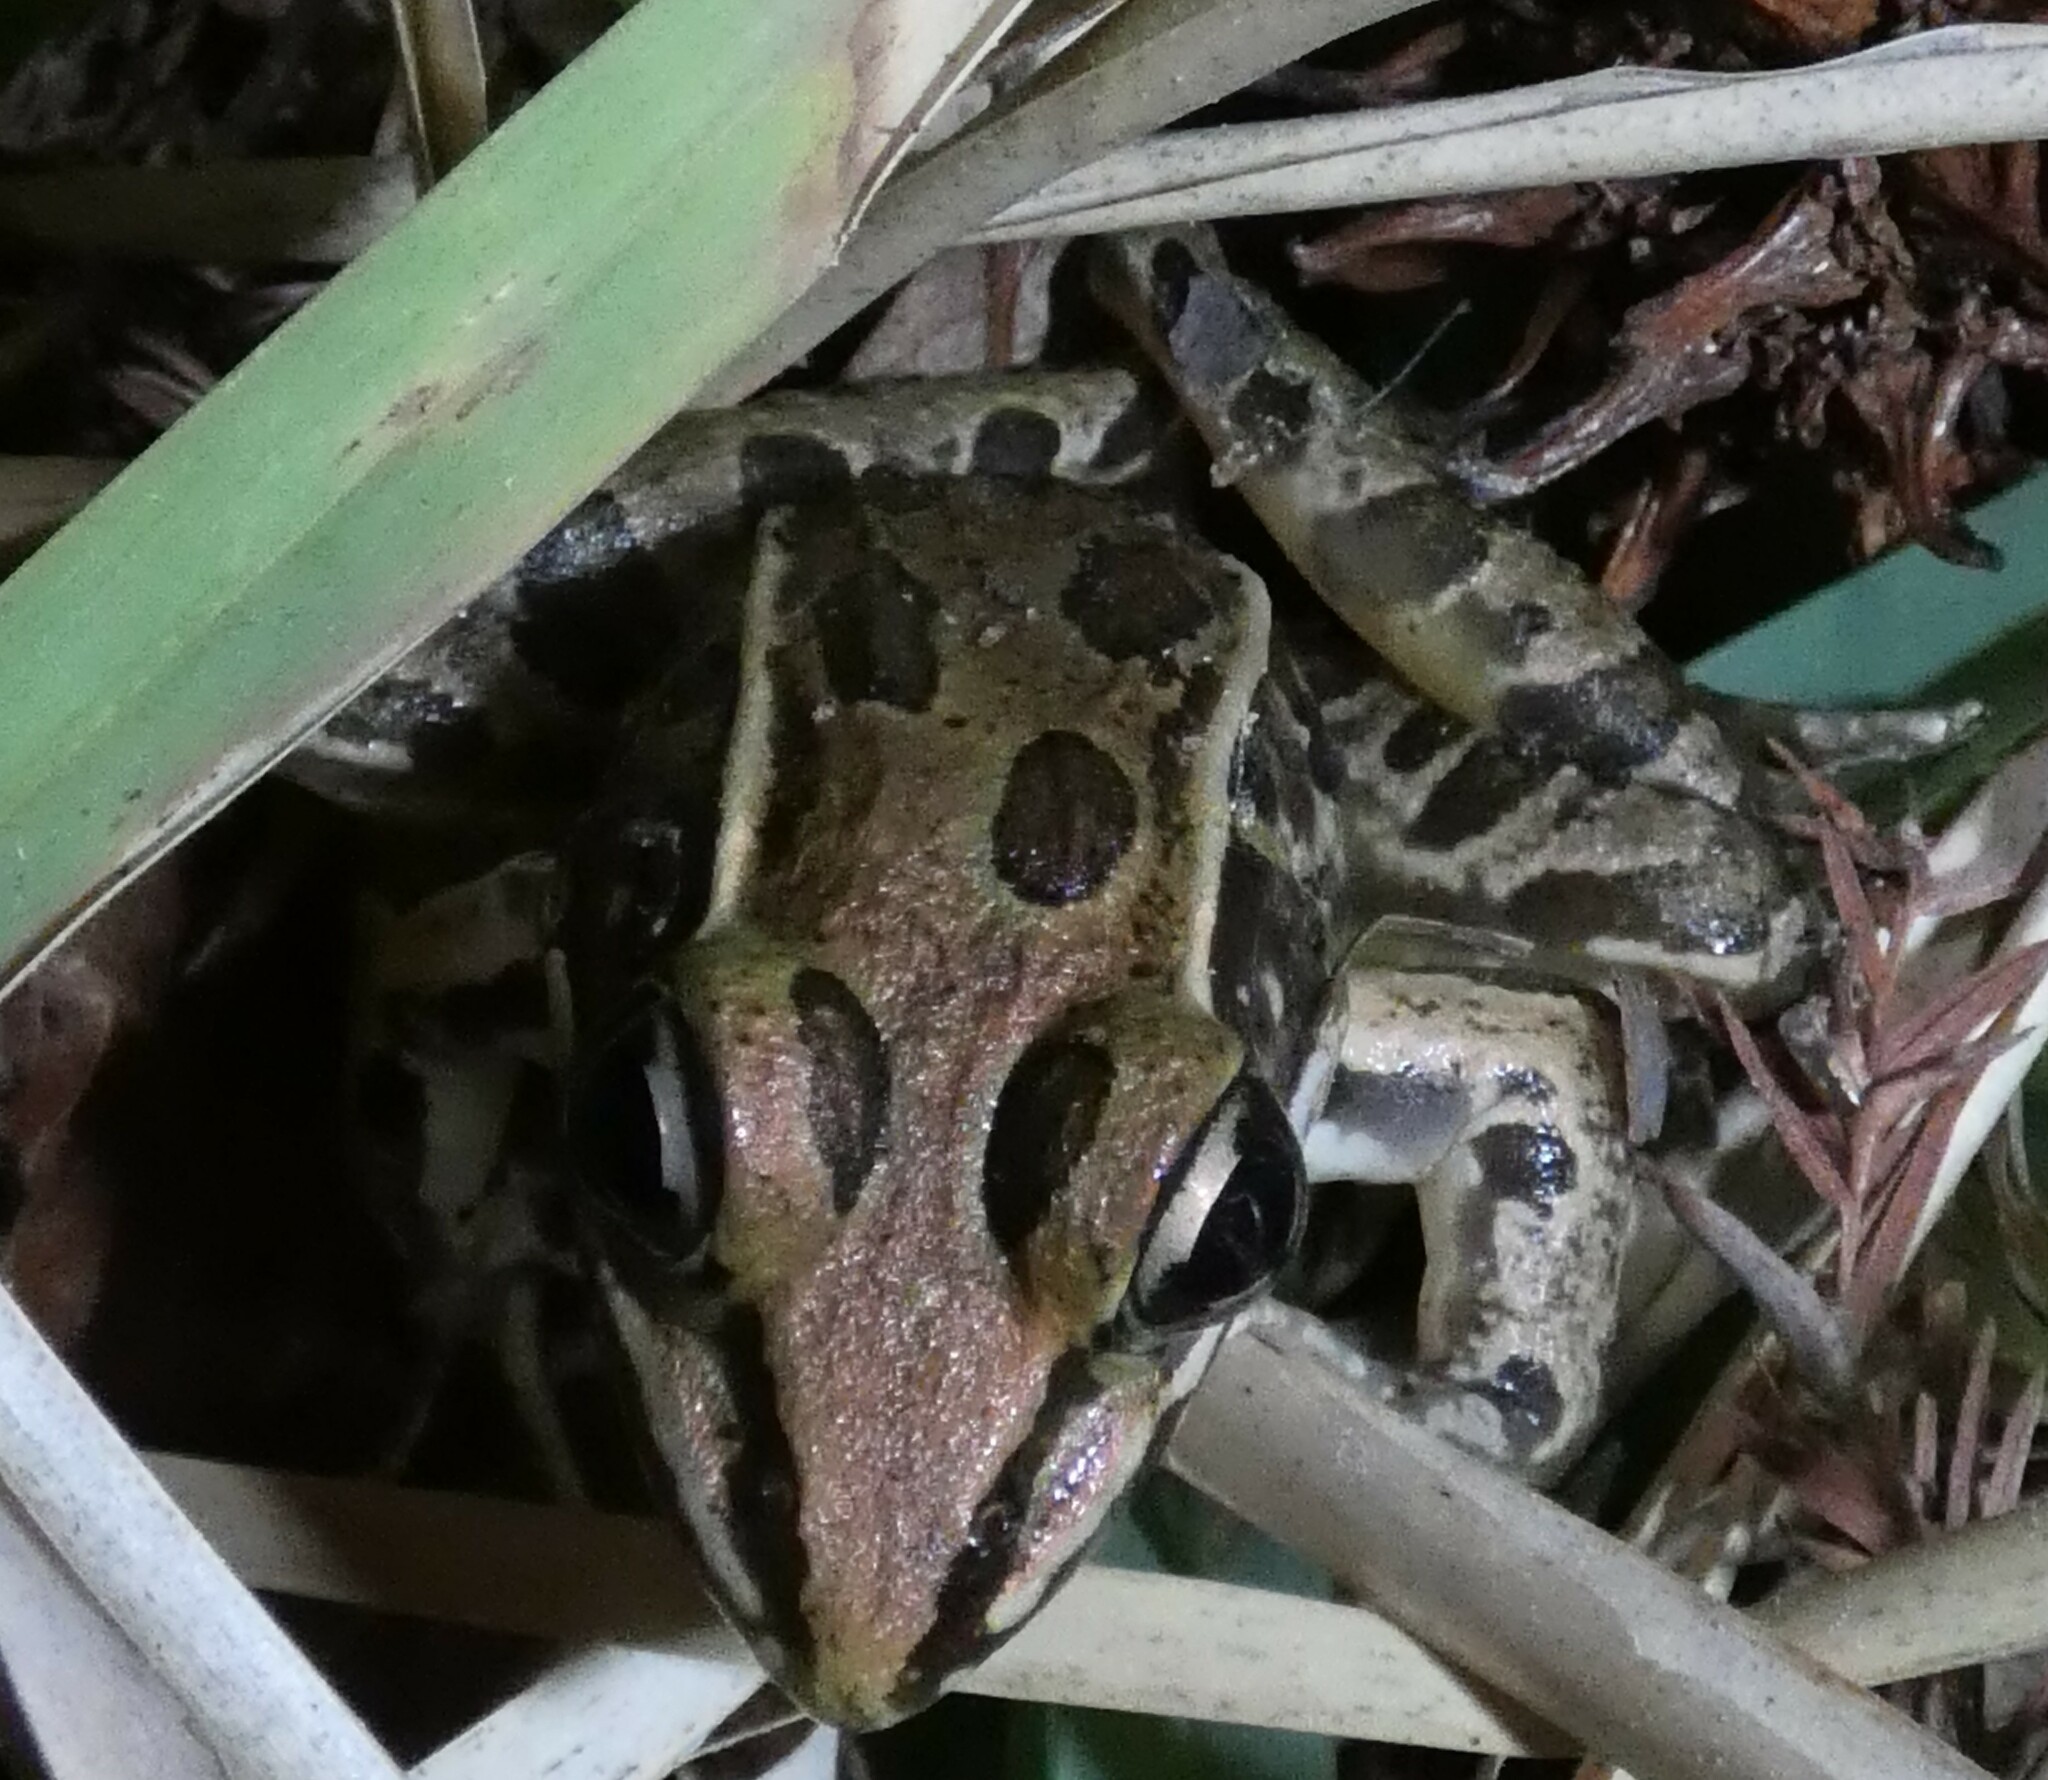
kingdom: Animalia
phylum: Chordata
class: Amphibia
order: Anura
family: Ranidae
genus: Lithobates
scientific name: Lithobates sphenocephalus
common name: Southern leopard frog
